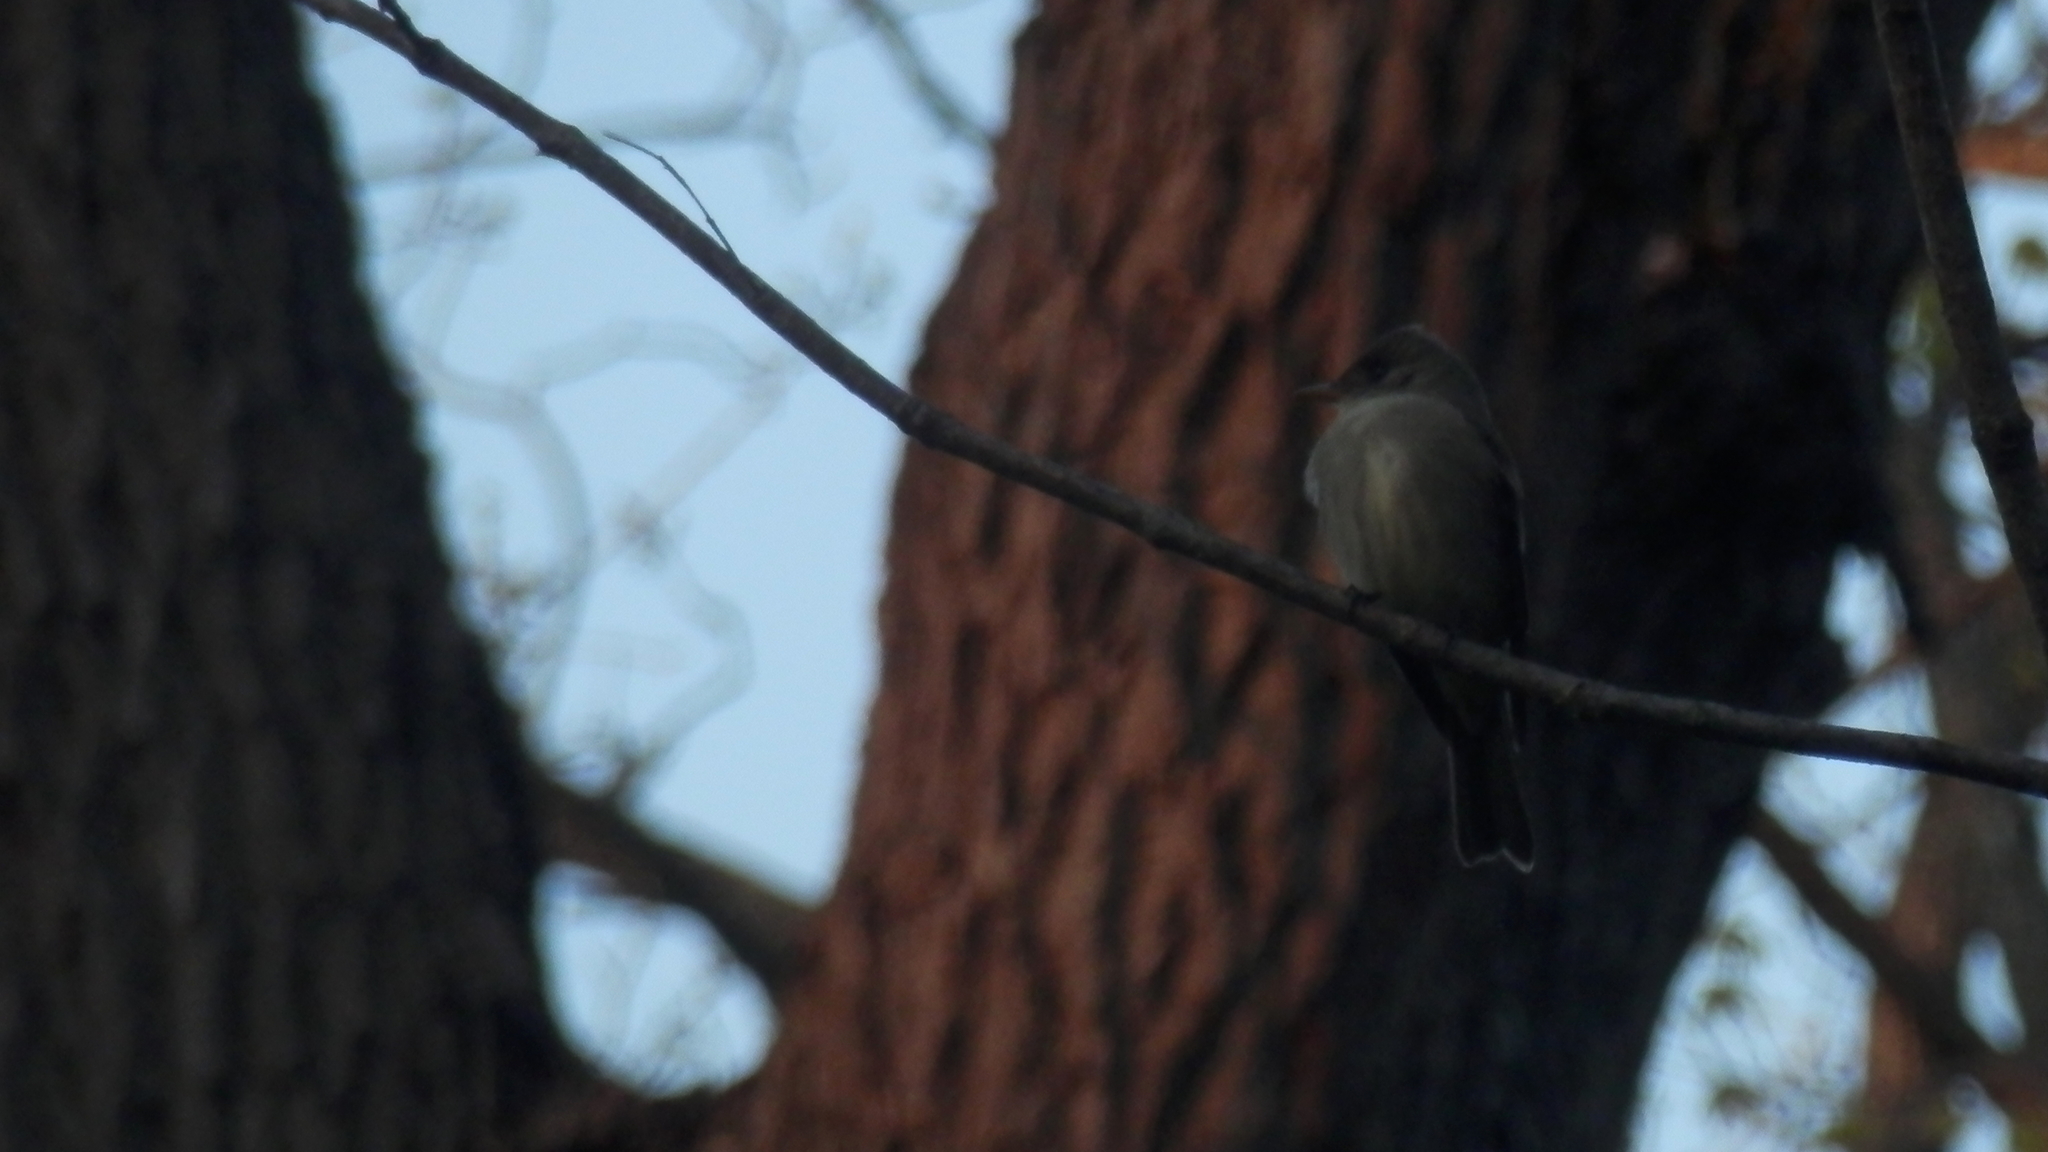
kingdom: Animalia
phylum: Chordata
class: Aves
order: Passeriformes
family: Tyrannidae
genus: Contopus
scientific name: Contopus virens
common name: Eastern wood-pewee
